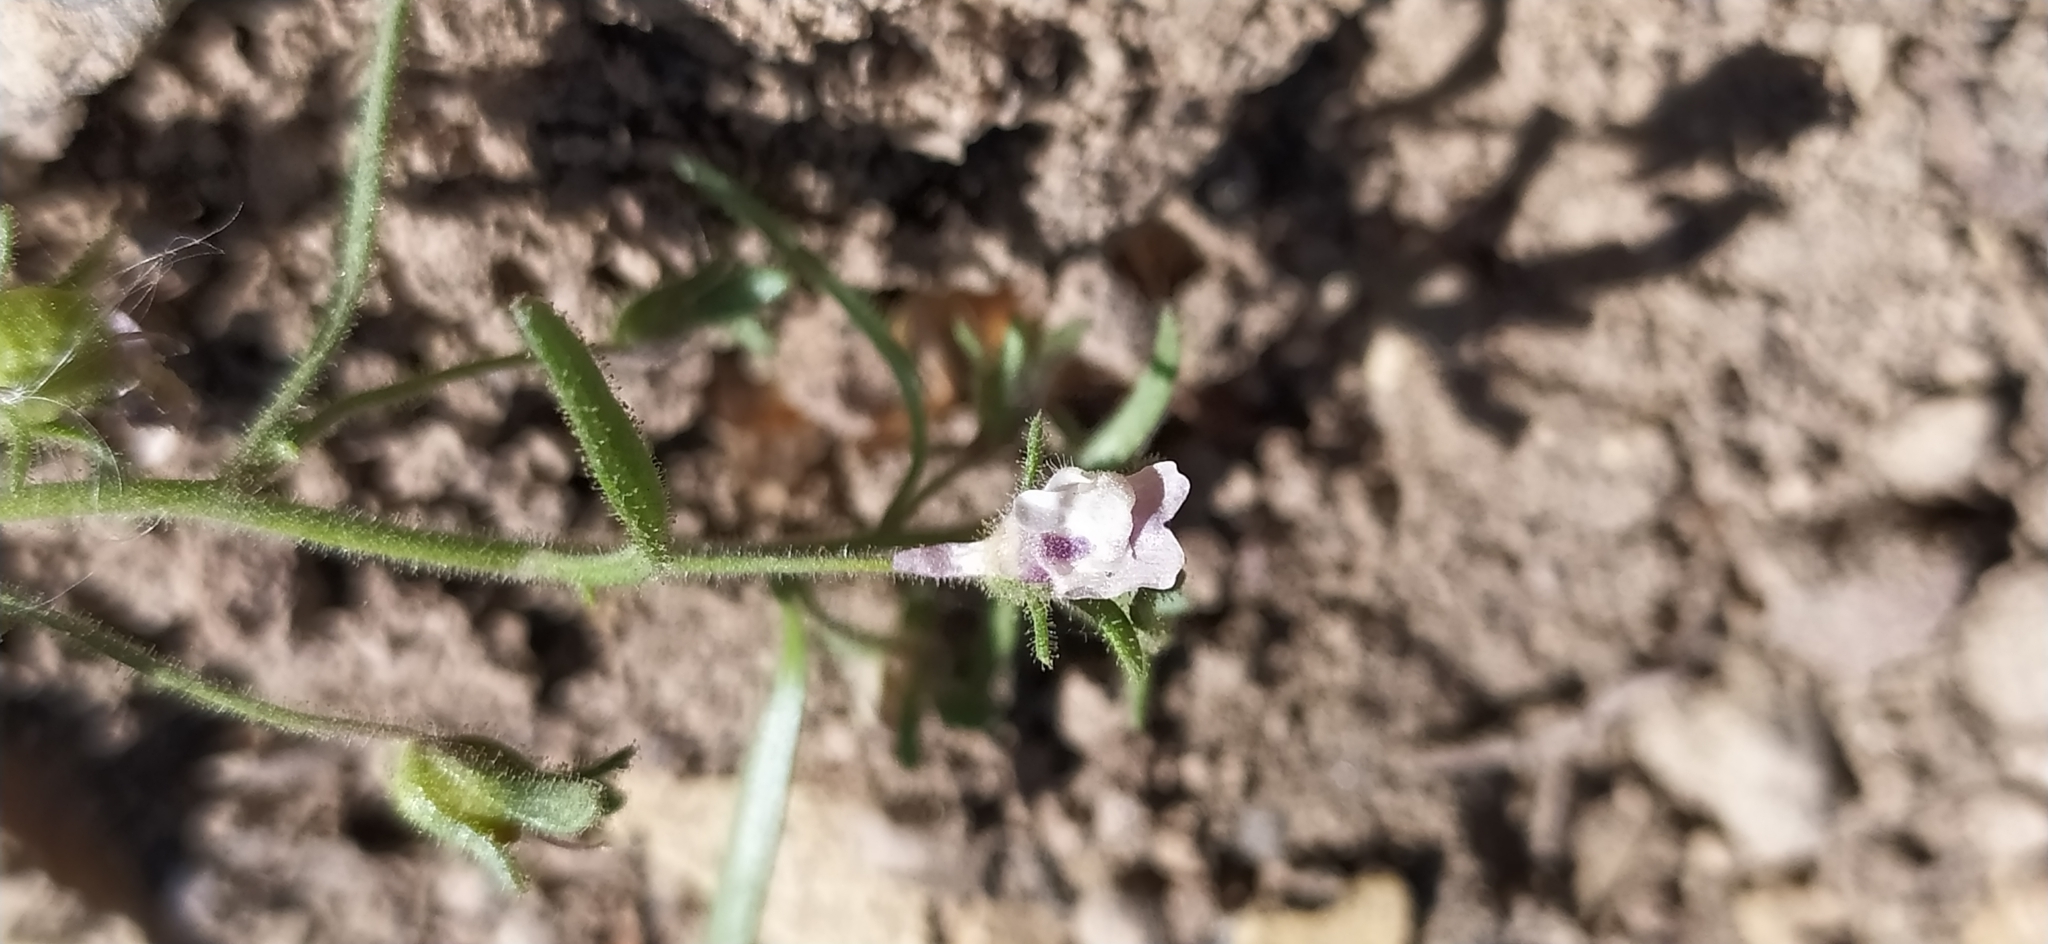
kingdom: Plantae
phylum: Tracheophyta
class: Magnoliopsida
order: Lamiales
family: Plantaginaceae
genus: Chaenorhinum
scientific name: Chaenorhinum minus
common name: Dwarf snapdragon
